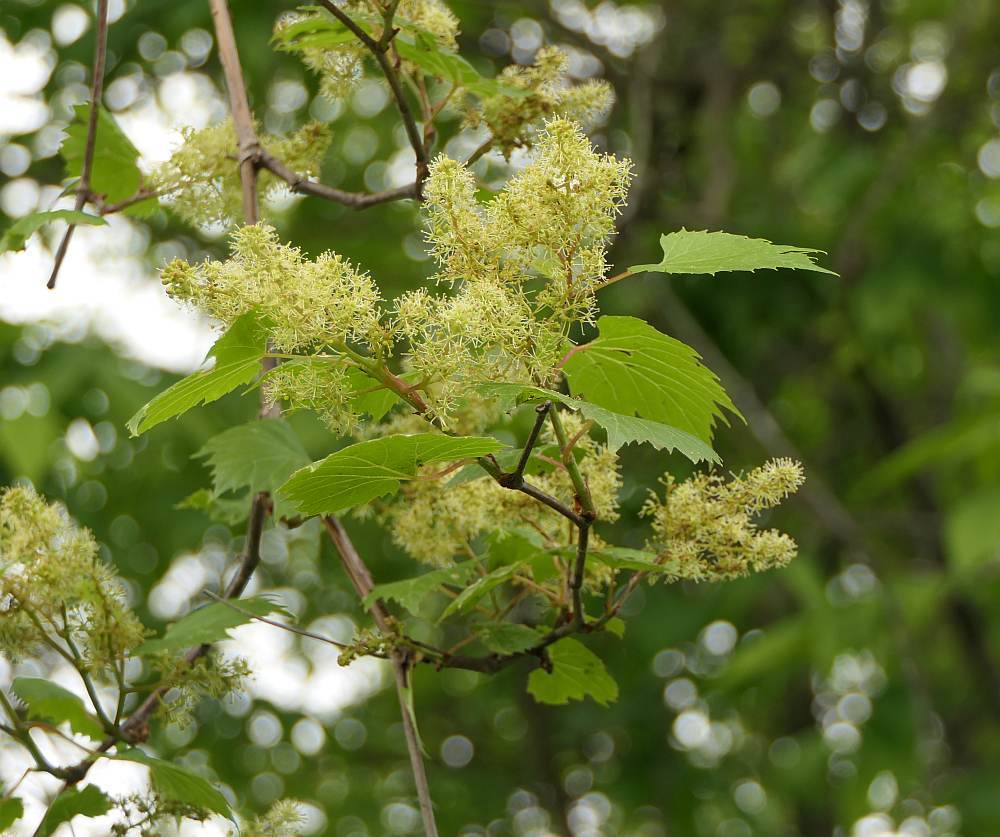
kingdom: Plantae
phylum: Tracheophyta
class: Magnoliopsida
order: Vitales
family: Vitaceae
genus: Vitis
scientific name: Vitis riparia
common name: Frost grape
